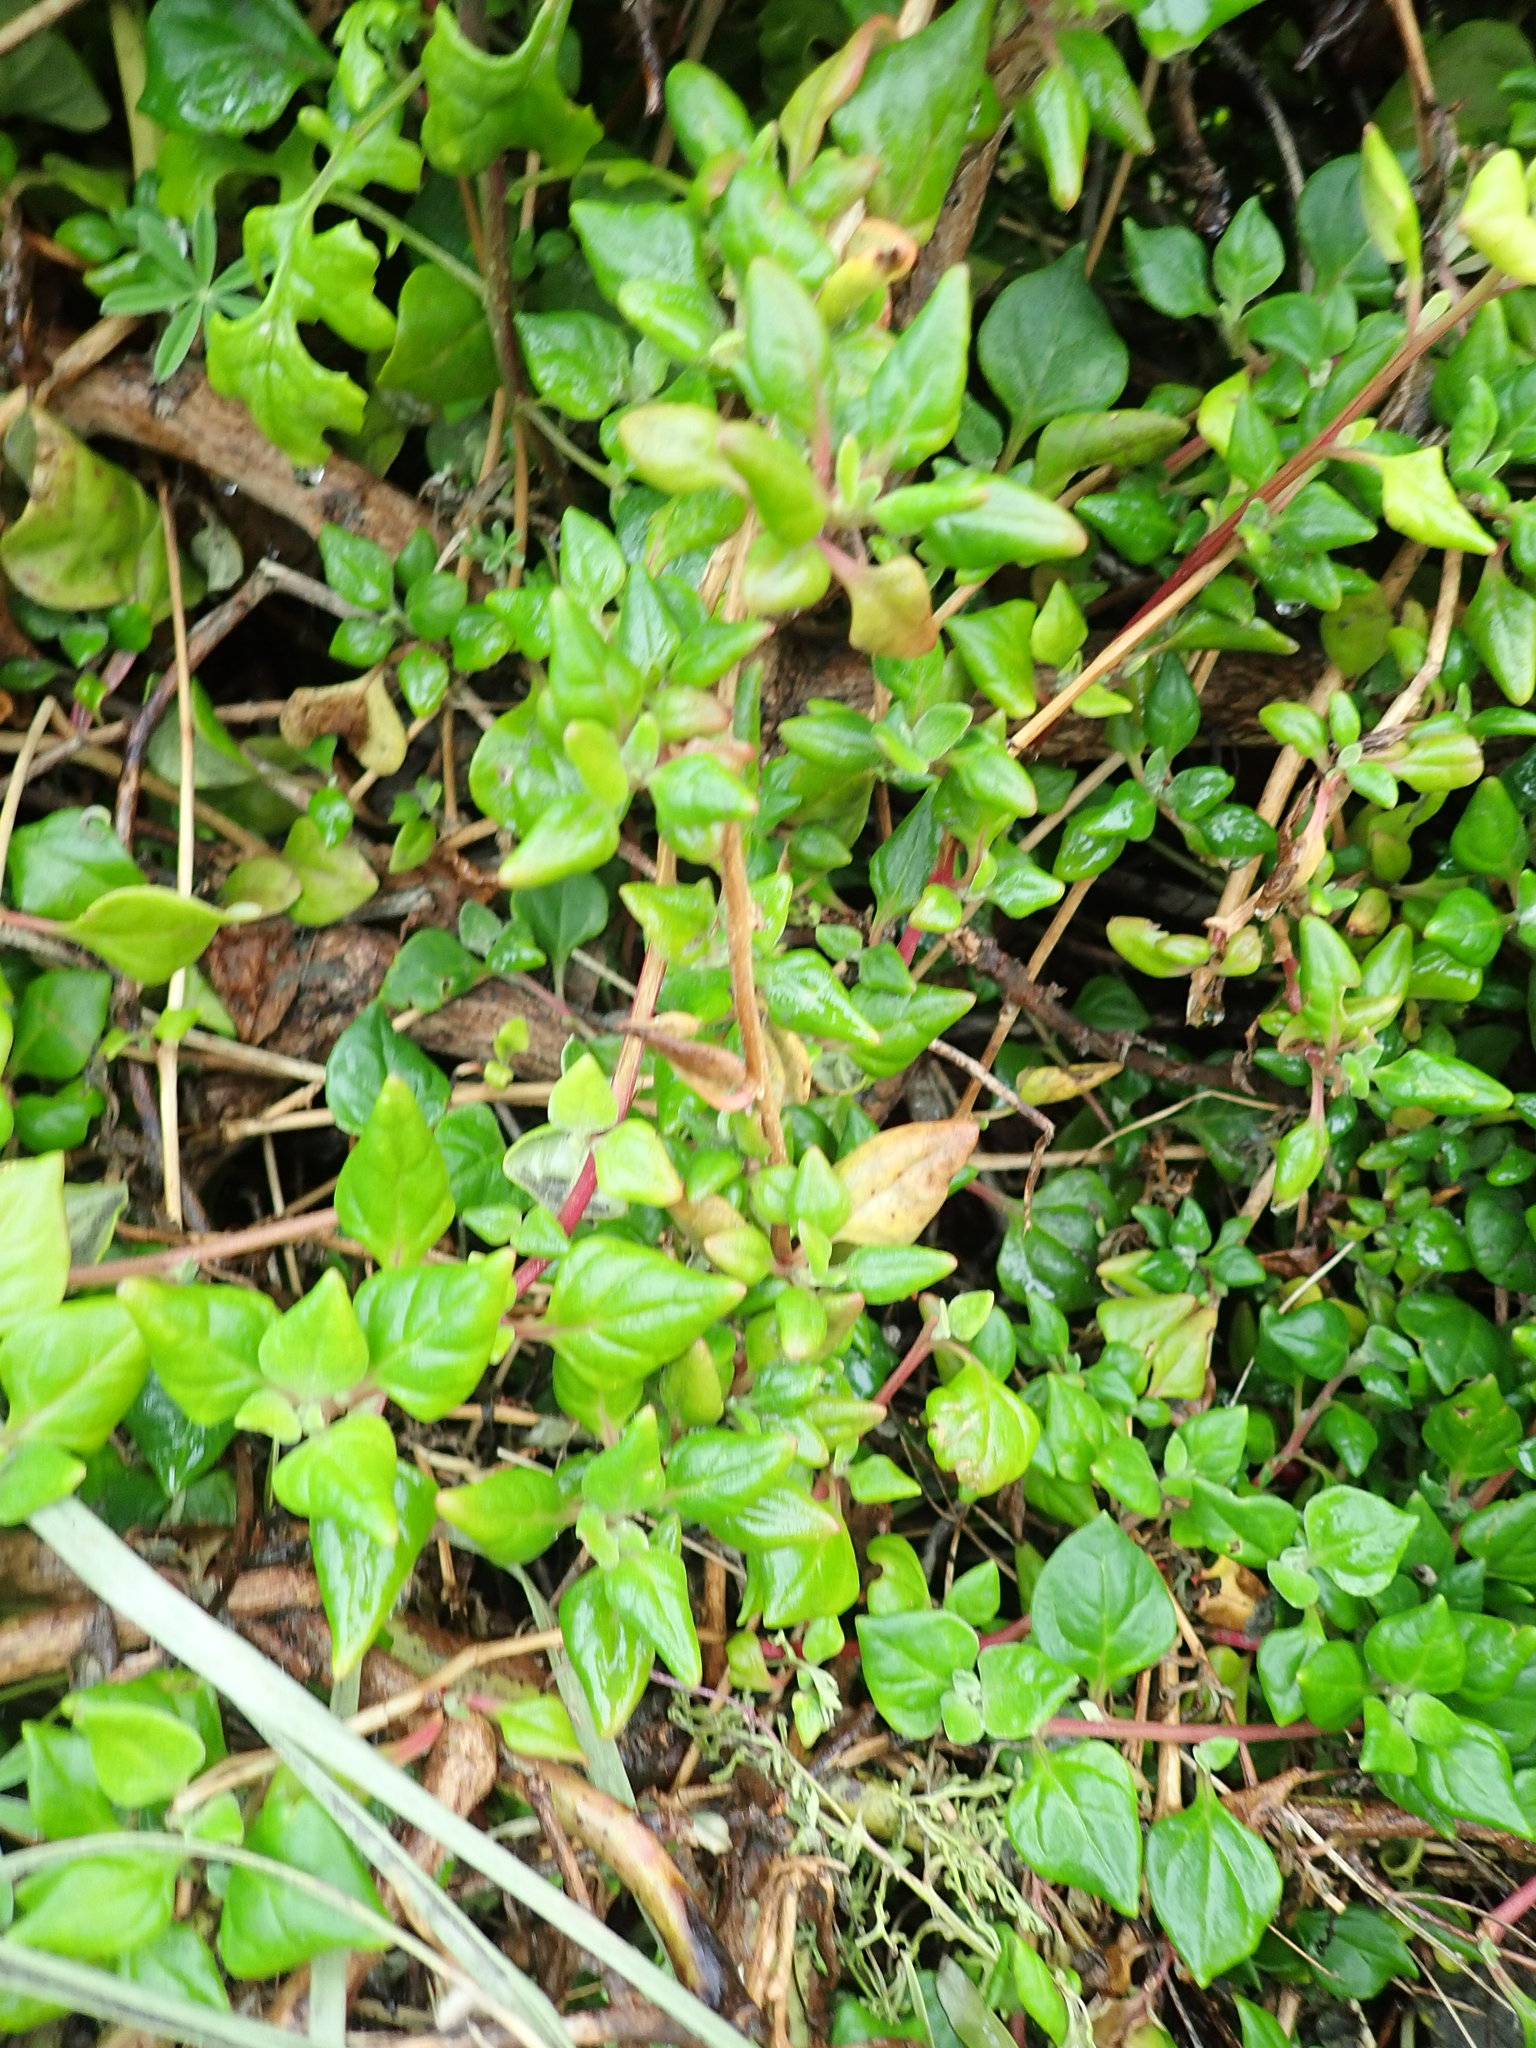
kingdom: Plantae
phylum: Tracheophyta
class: Magnoliopsida
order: Caryophyllales
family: Aizoaceae
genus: Tetragonia
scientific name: Tetragonia implexicoma
